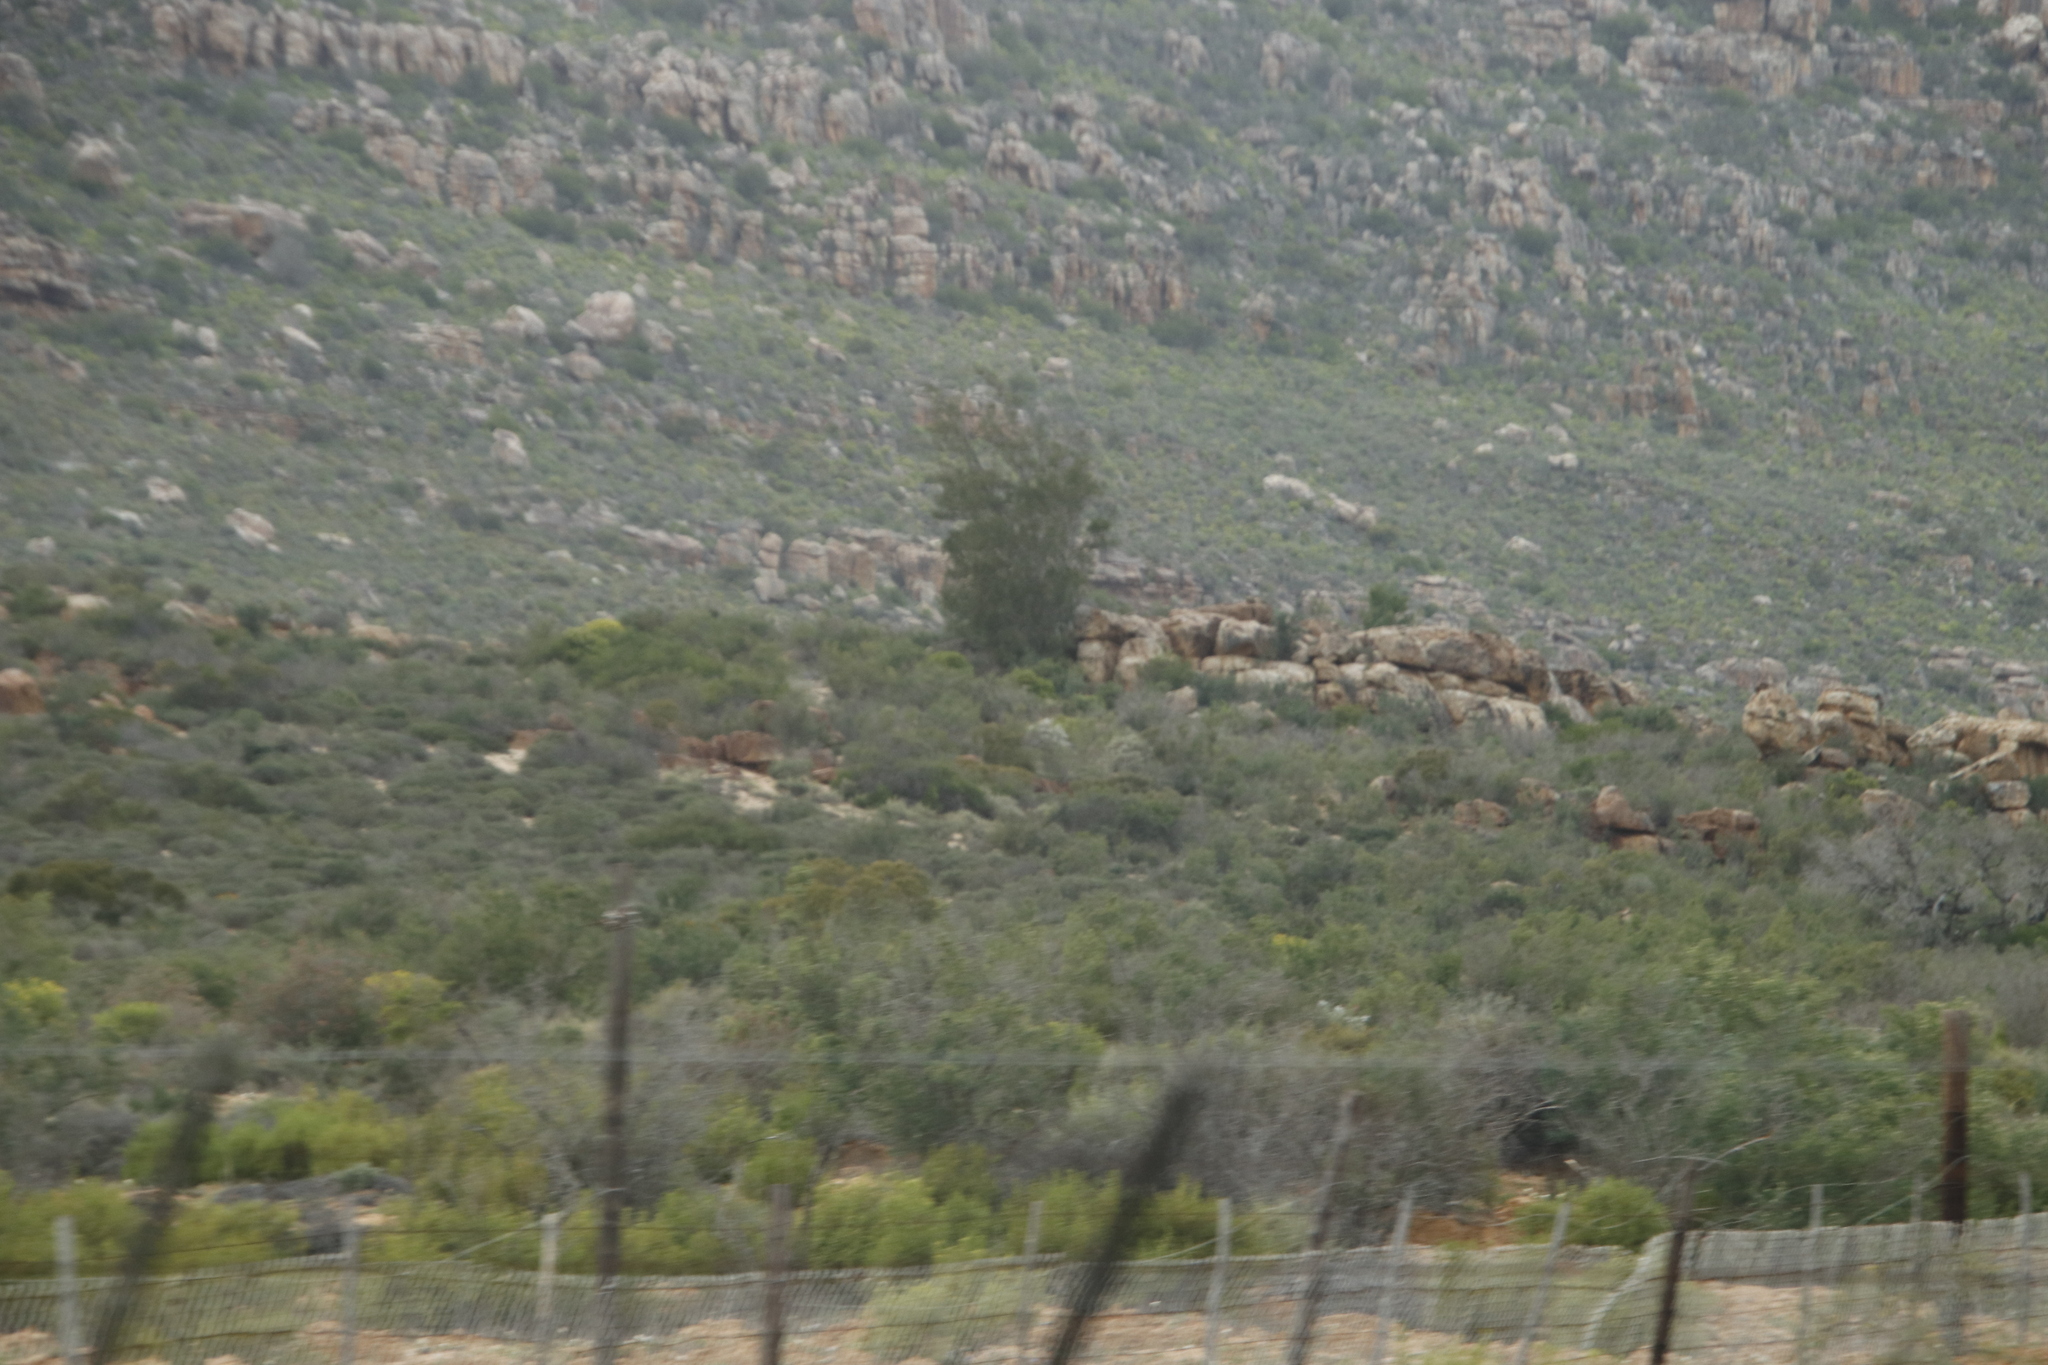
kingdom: Plantae
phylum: Tracheophyta
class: Magnoliopsida
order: Rosales
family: Moraceae
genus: Ficus
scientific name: Ficus cordata
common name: Namaqua rock fig
